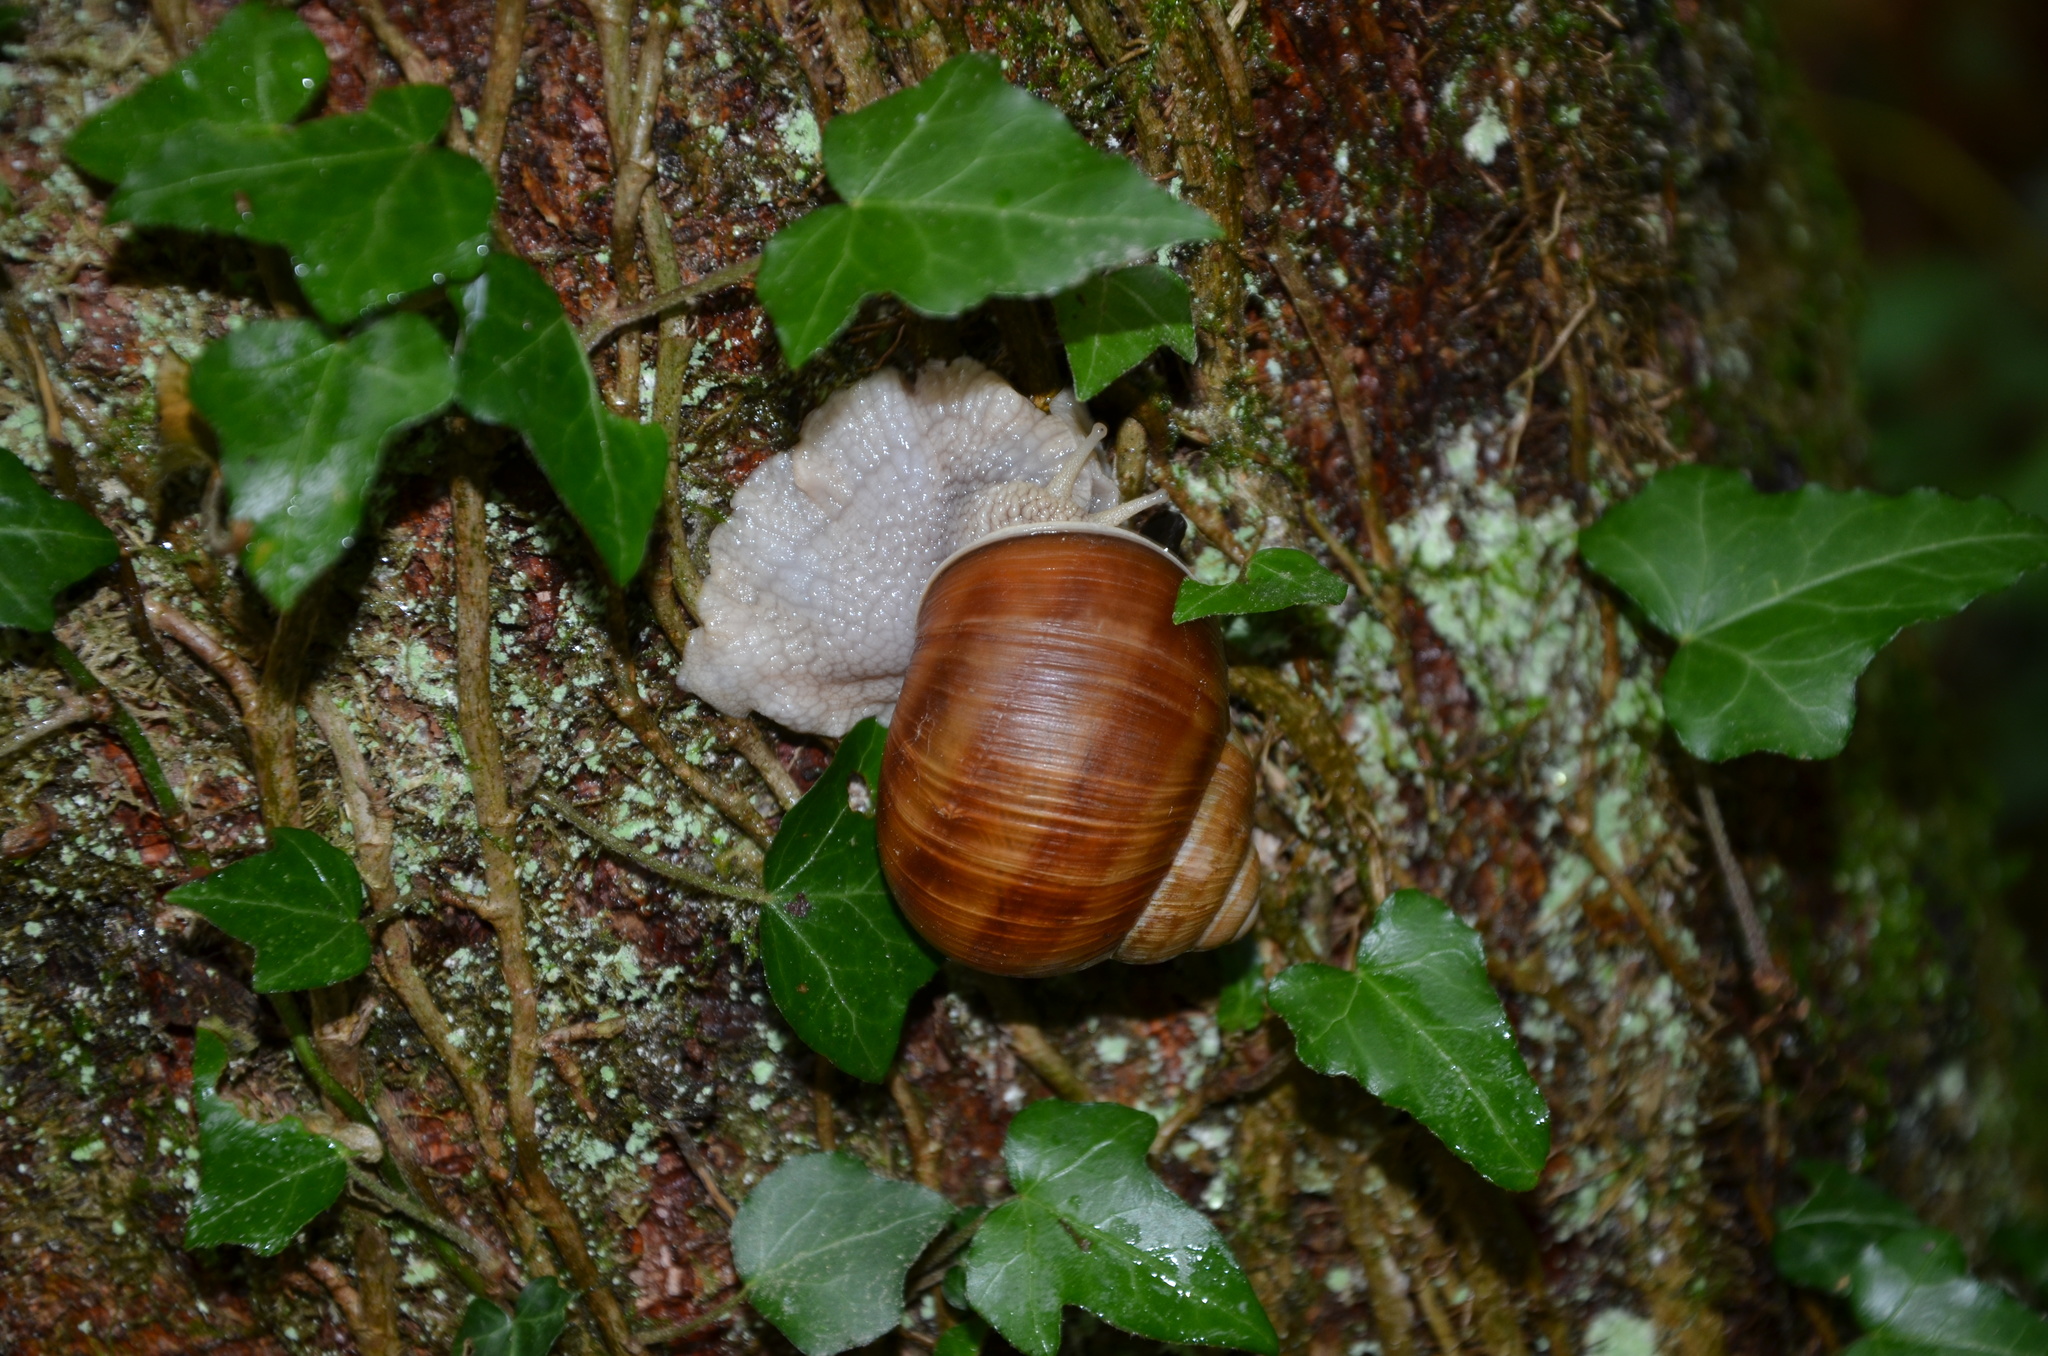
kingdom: Animalia
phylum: Mollusca
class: Gastropoda
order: Stylommatophora
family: Helicidae
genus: Helix
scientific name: Helix pomatia
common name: Roman snail
